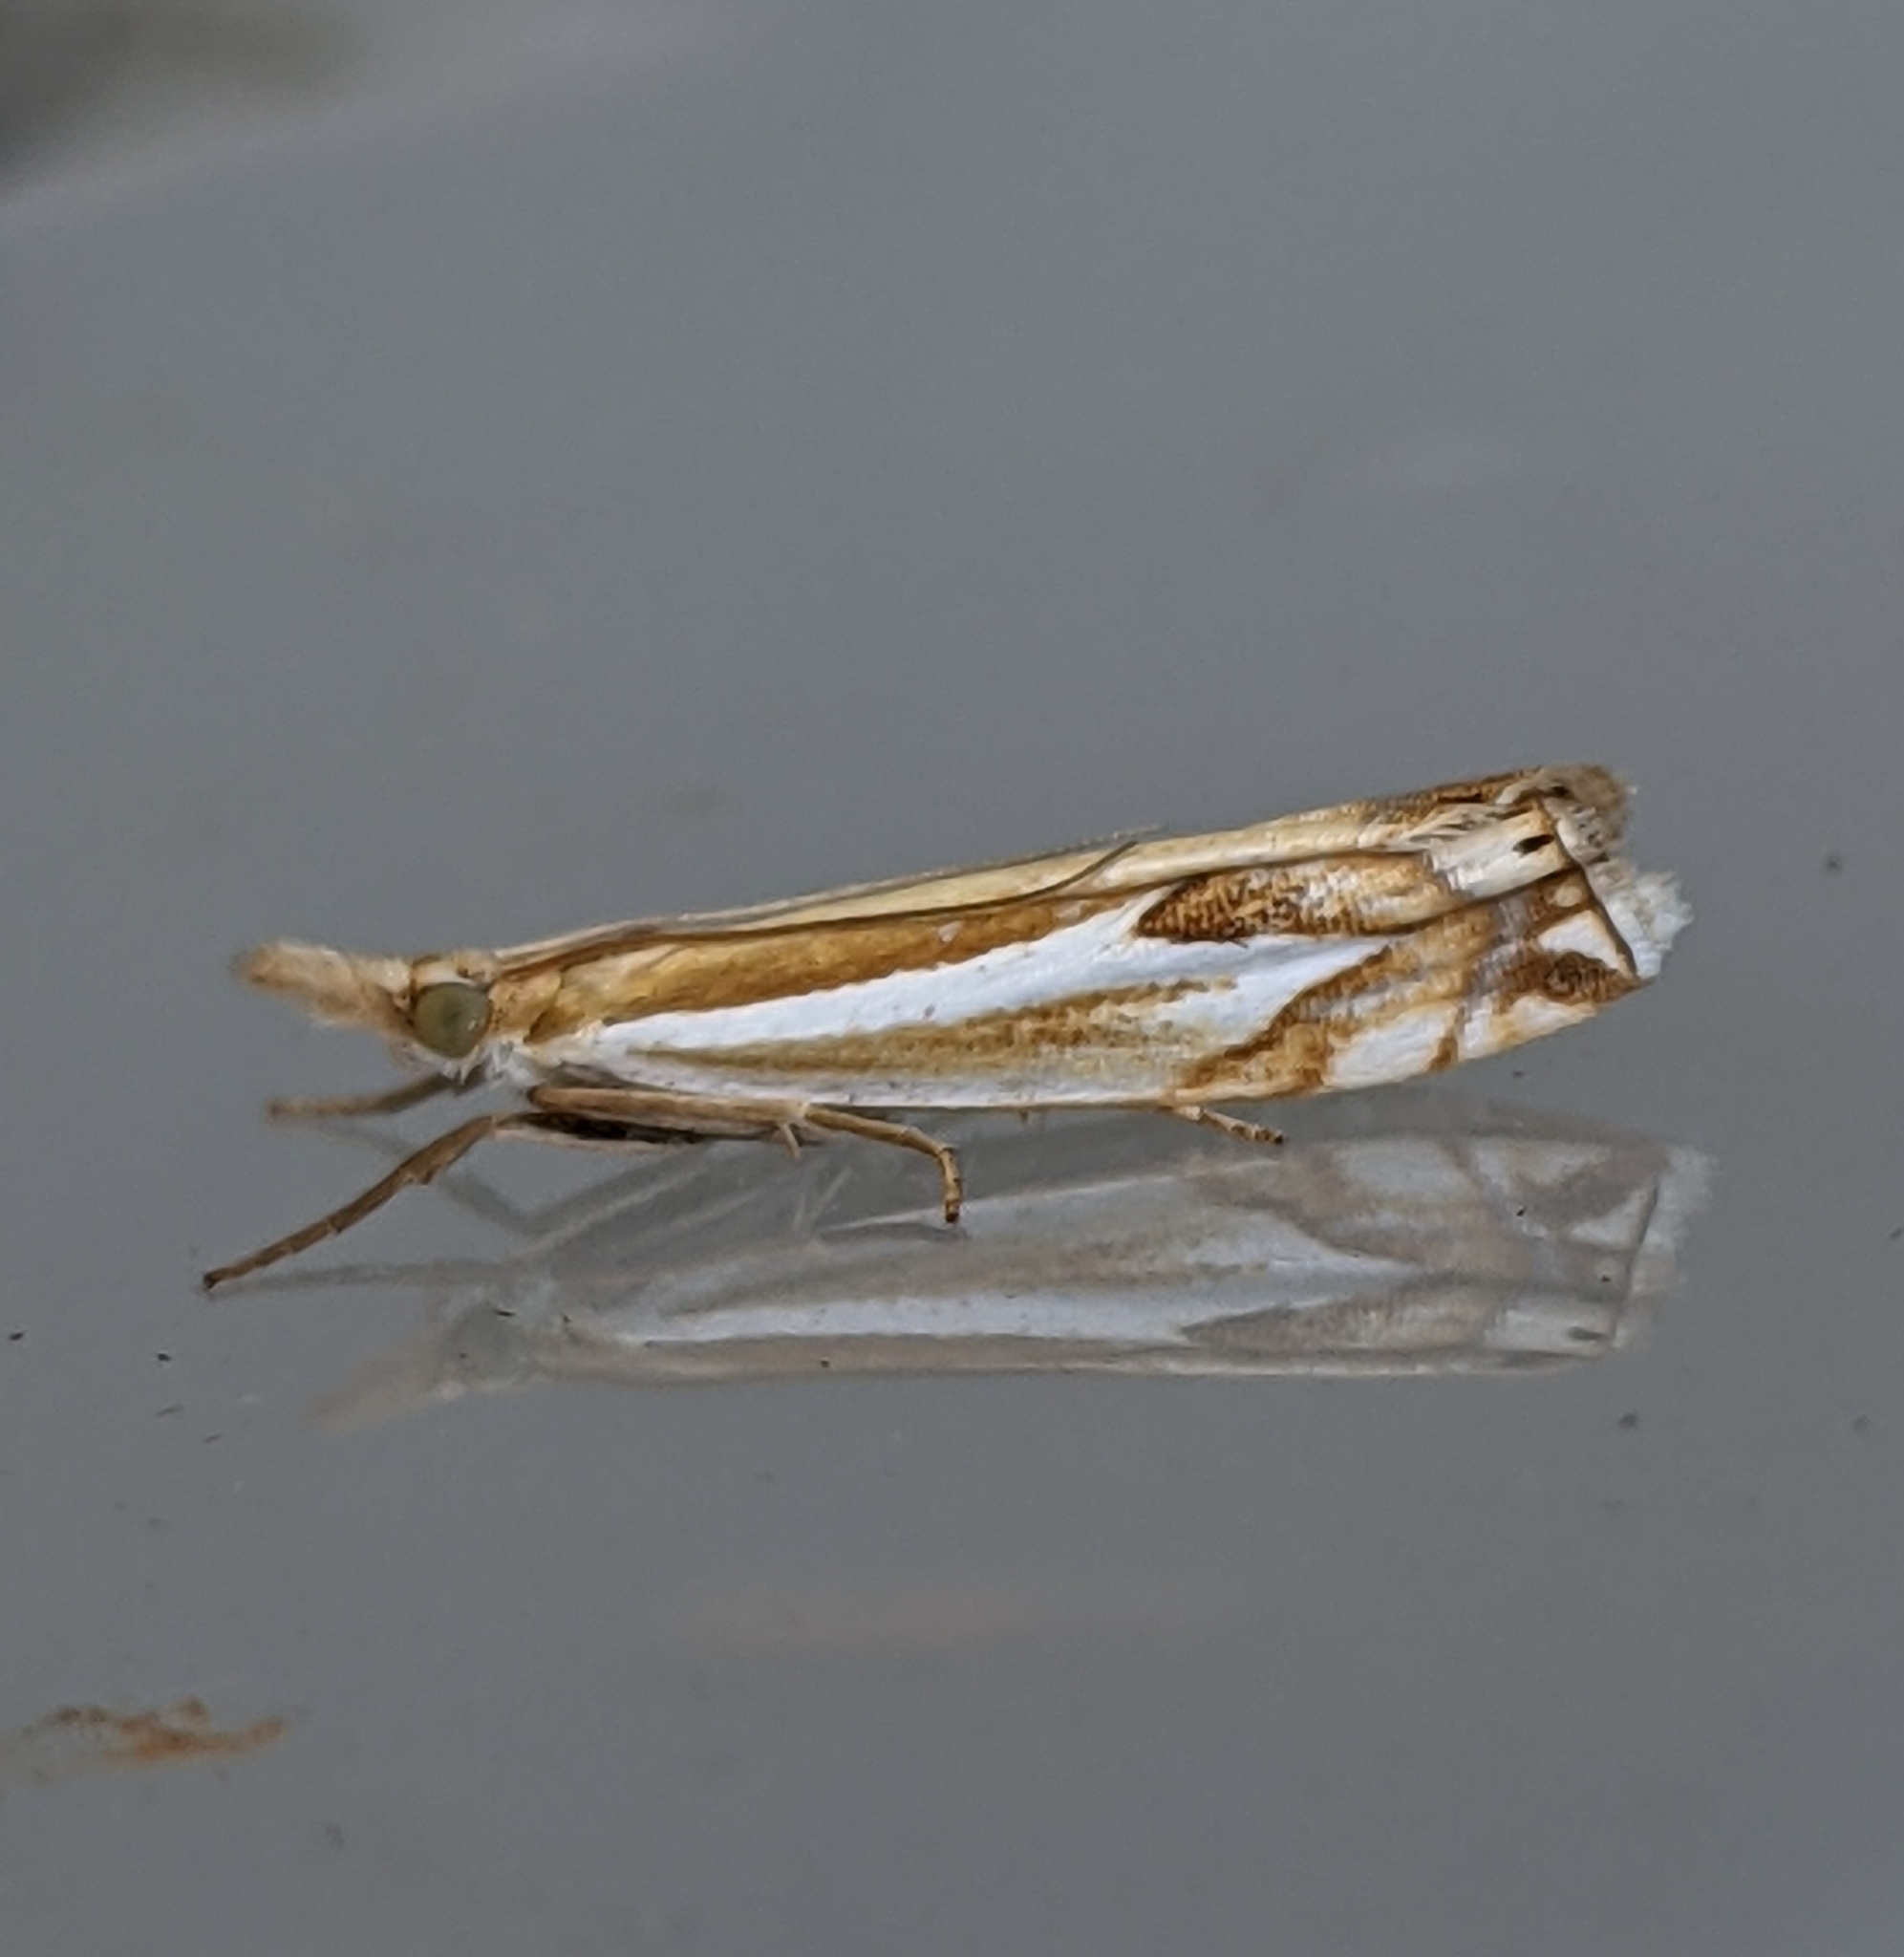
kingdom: Animalia
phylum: Arthropoda
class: Insecta
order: Lepidoptera
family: Crambidae
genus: Crambus
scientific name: Crambus bidens
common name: Forked grass-veneer
